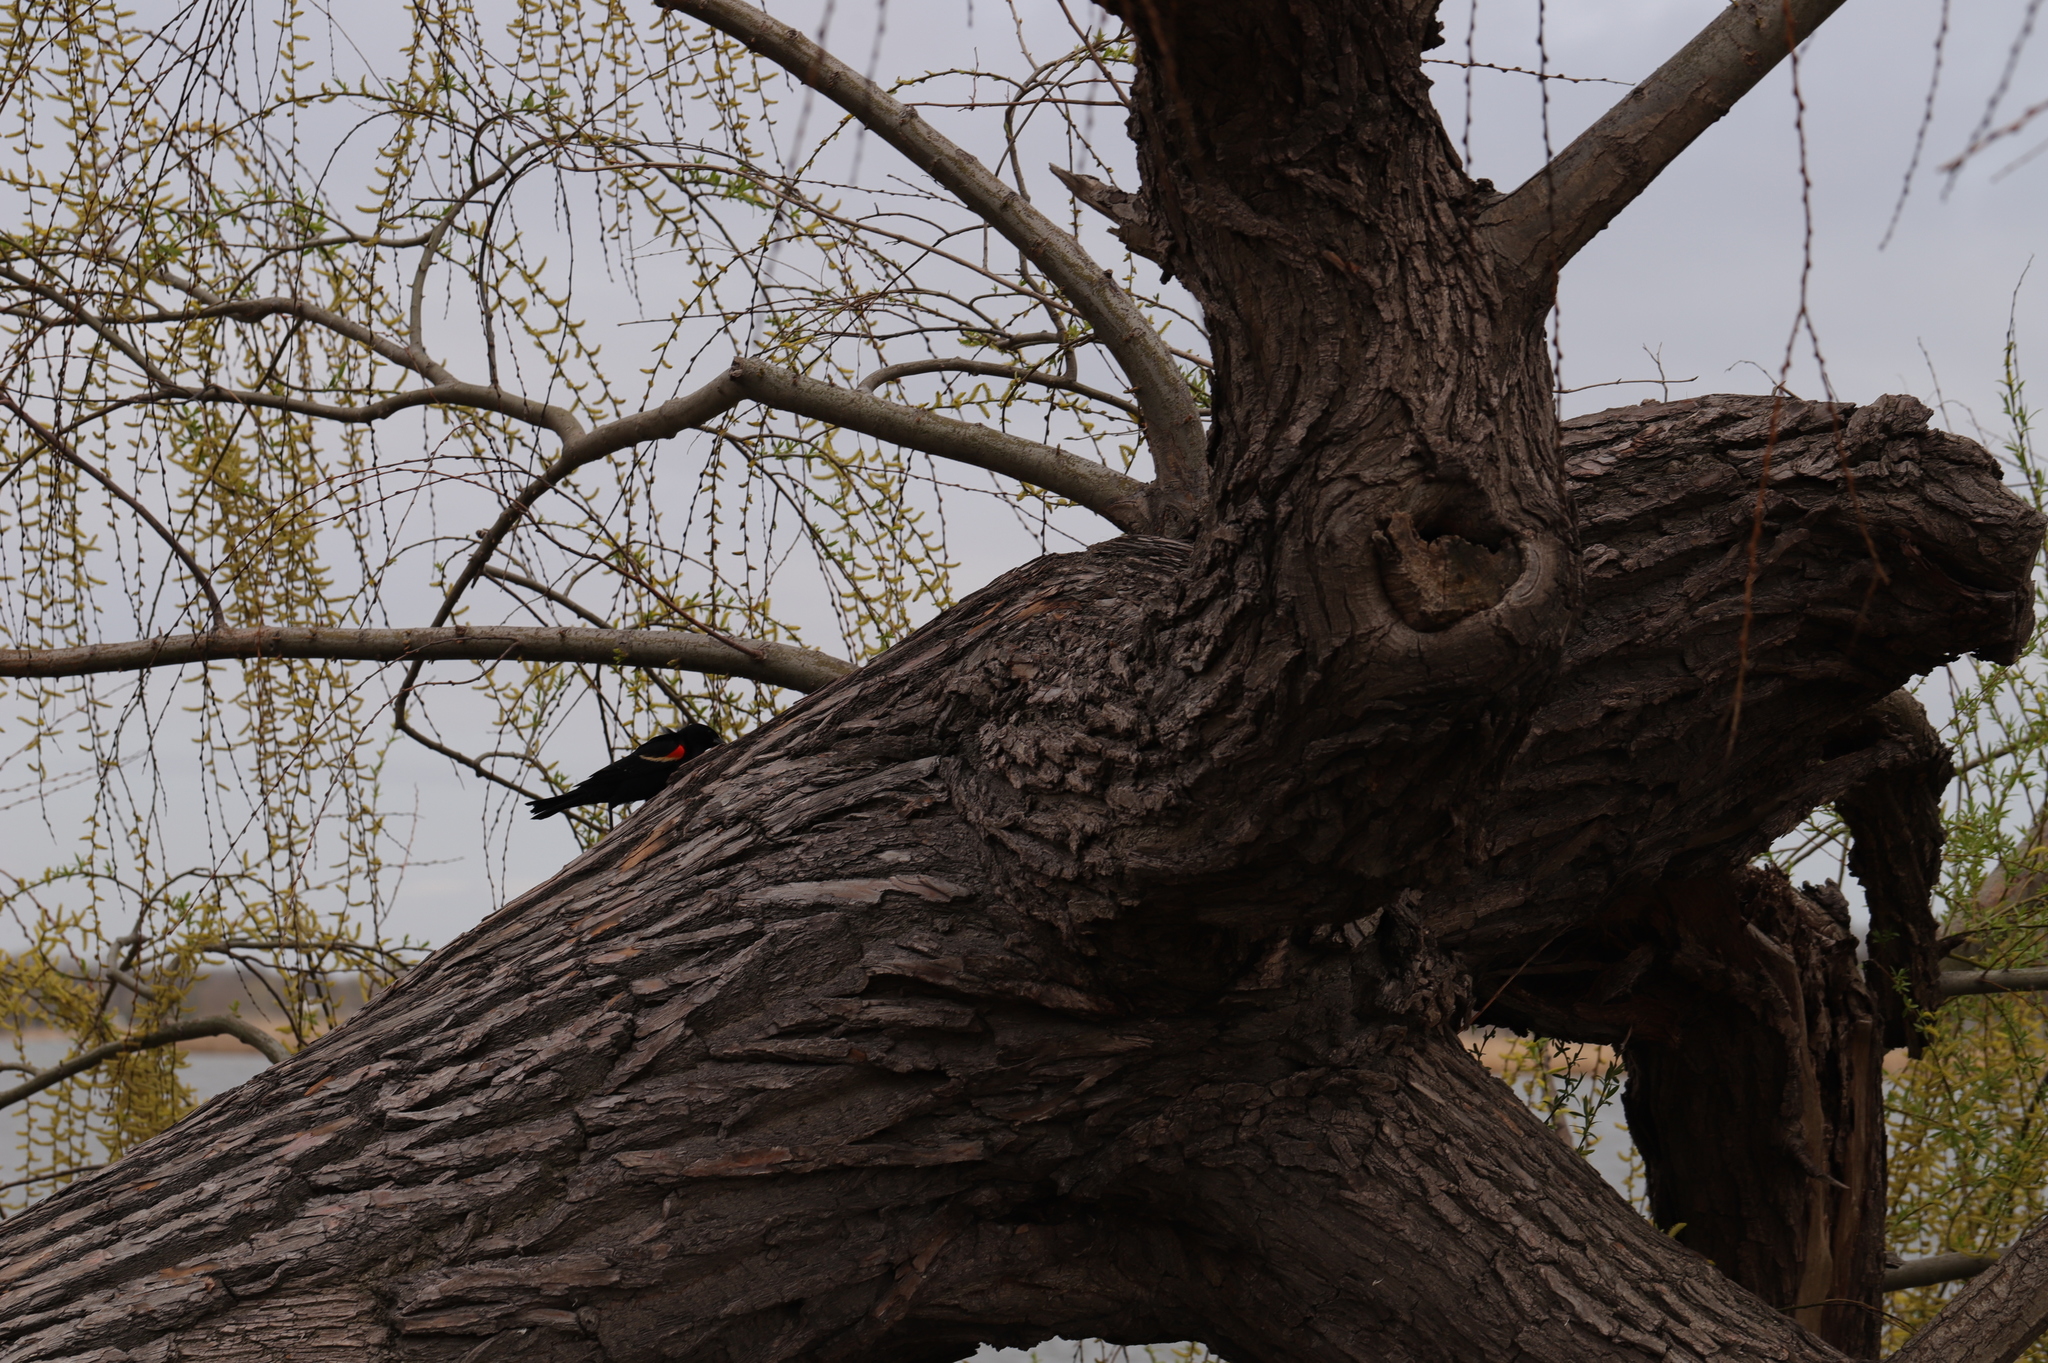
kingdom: Animalia
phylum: Chordata
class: Aves
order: Passeriformes
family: Icteridae
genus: Agelaius
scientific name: Agelaius phoeniceus
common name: Red-winged blackbird
